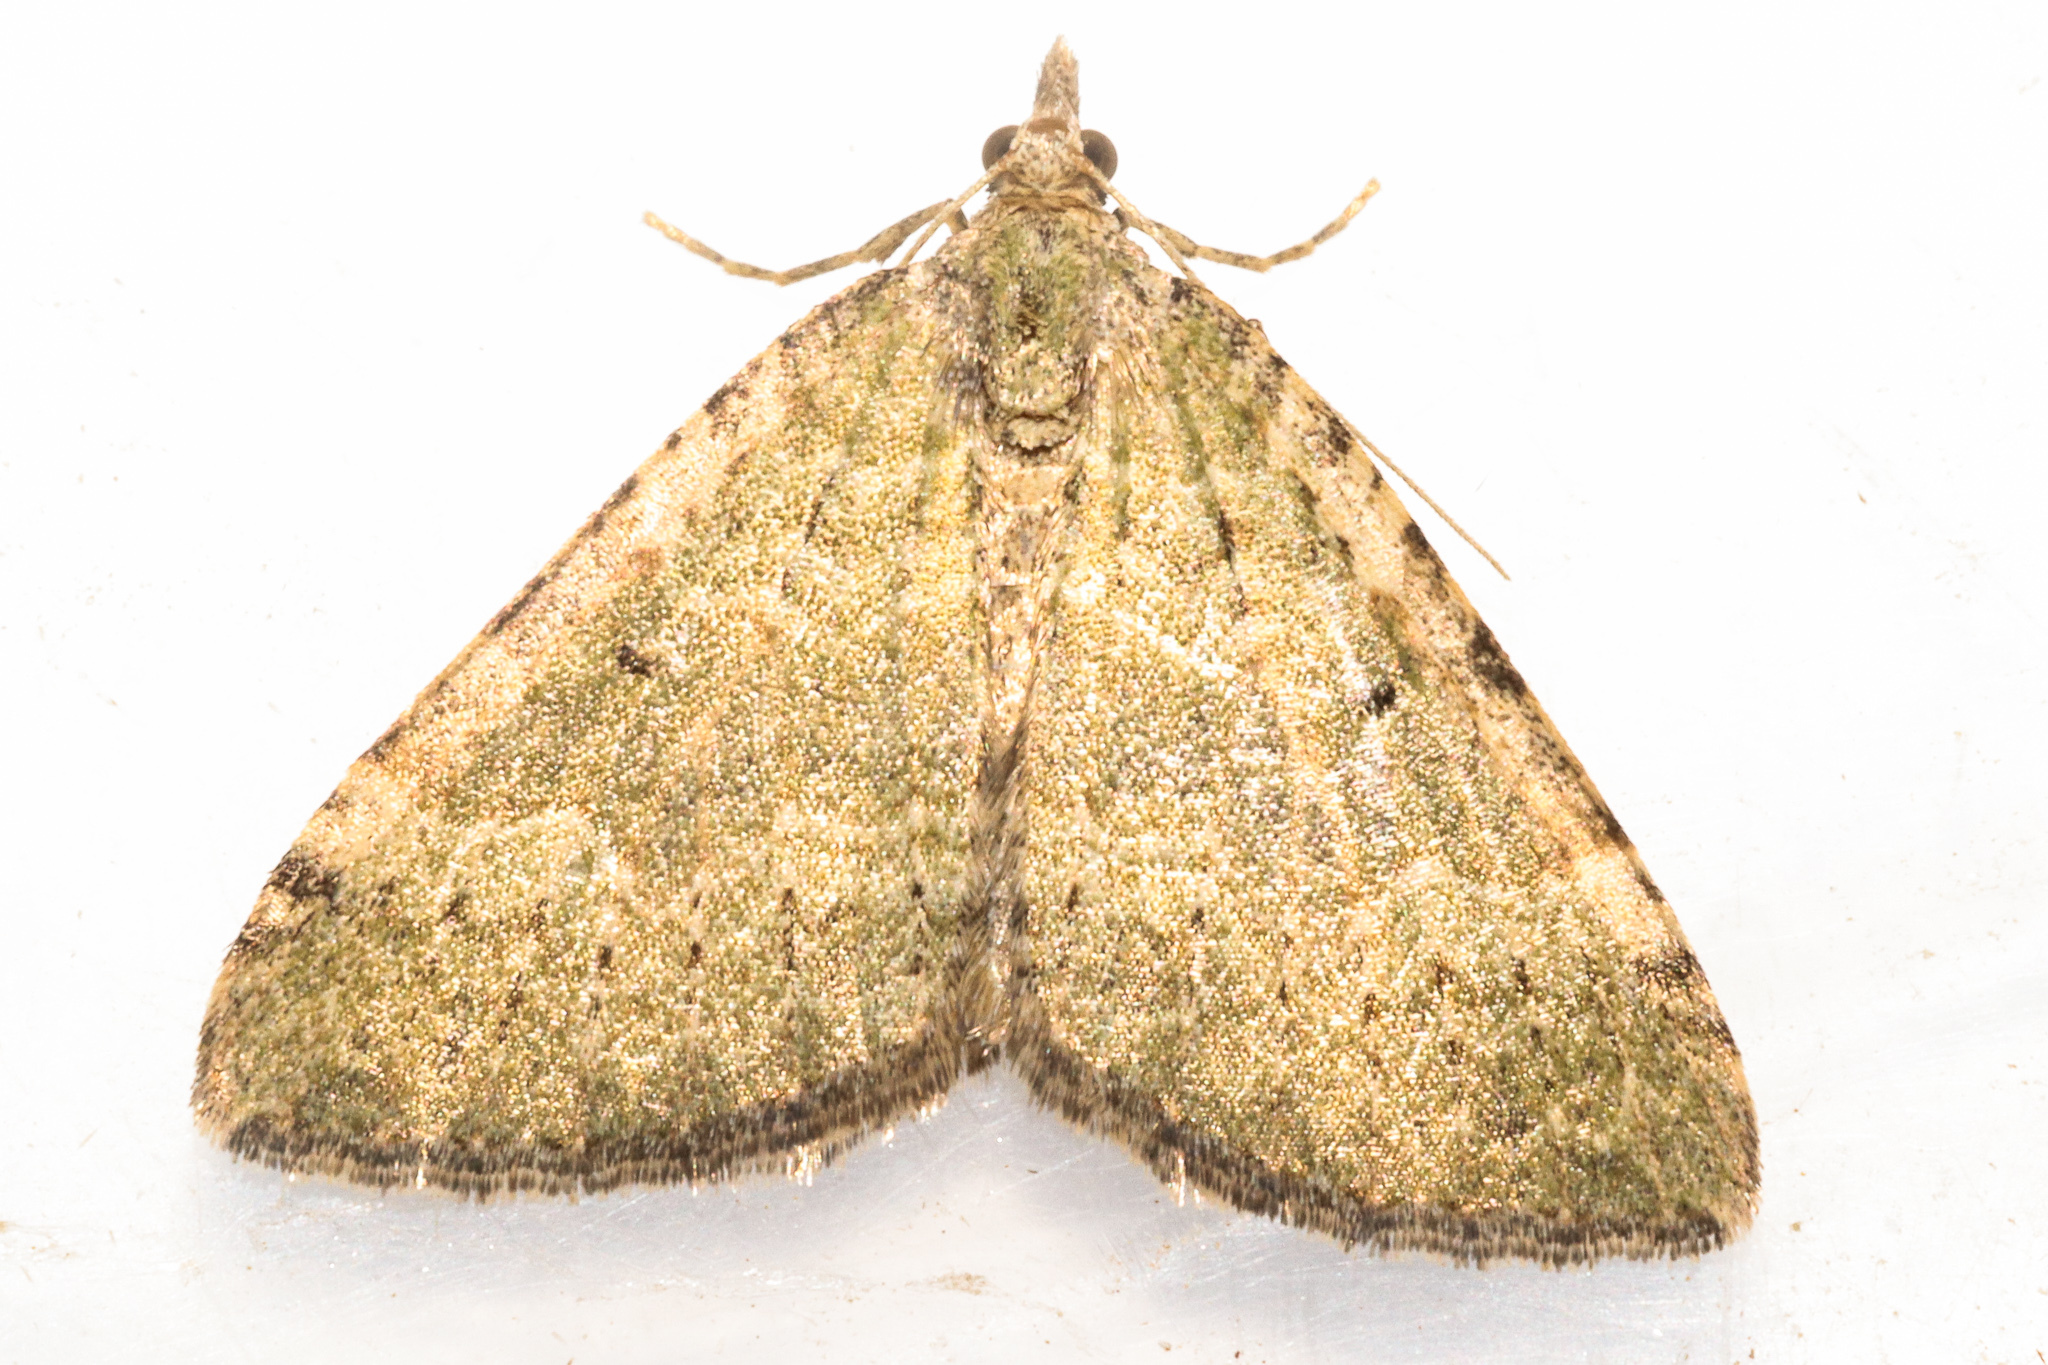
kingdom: Animalia
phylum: Arthropoda
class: Insecta
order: Lepidoptera
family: Geometridae
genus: Epyaxa
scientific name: Epyaxa rosearia
